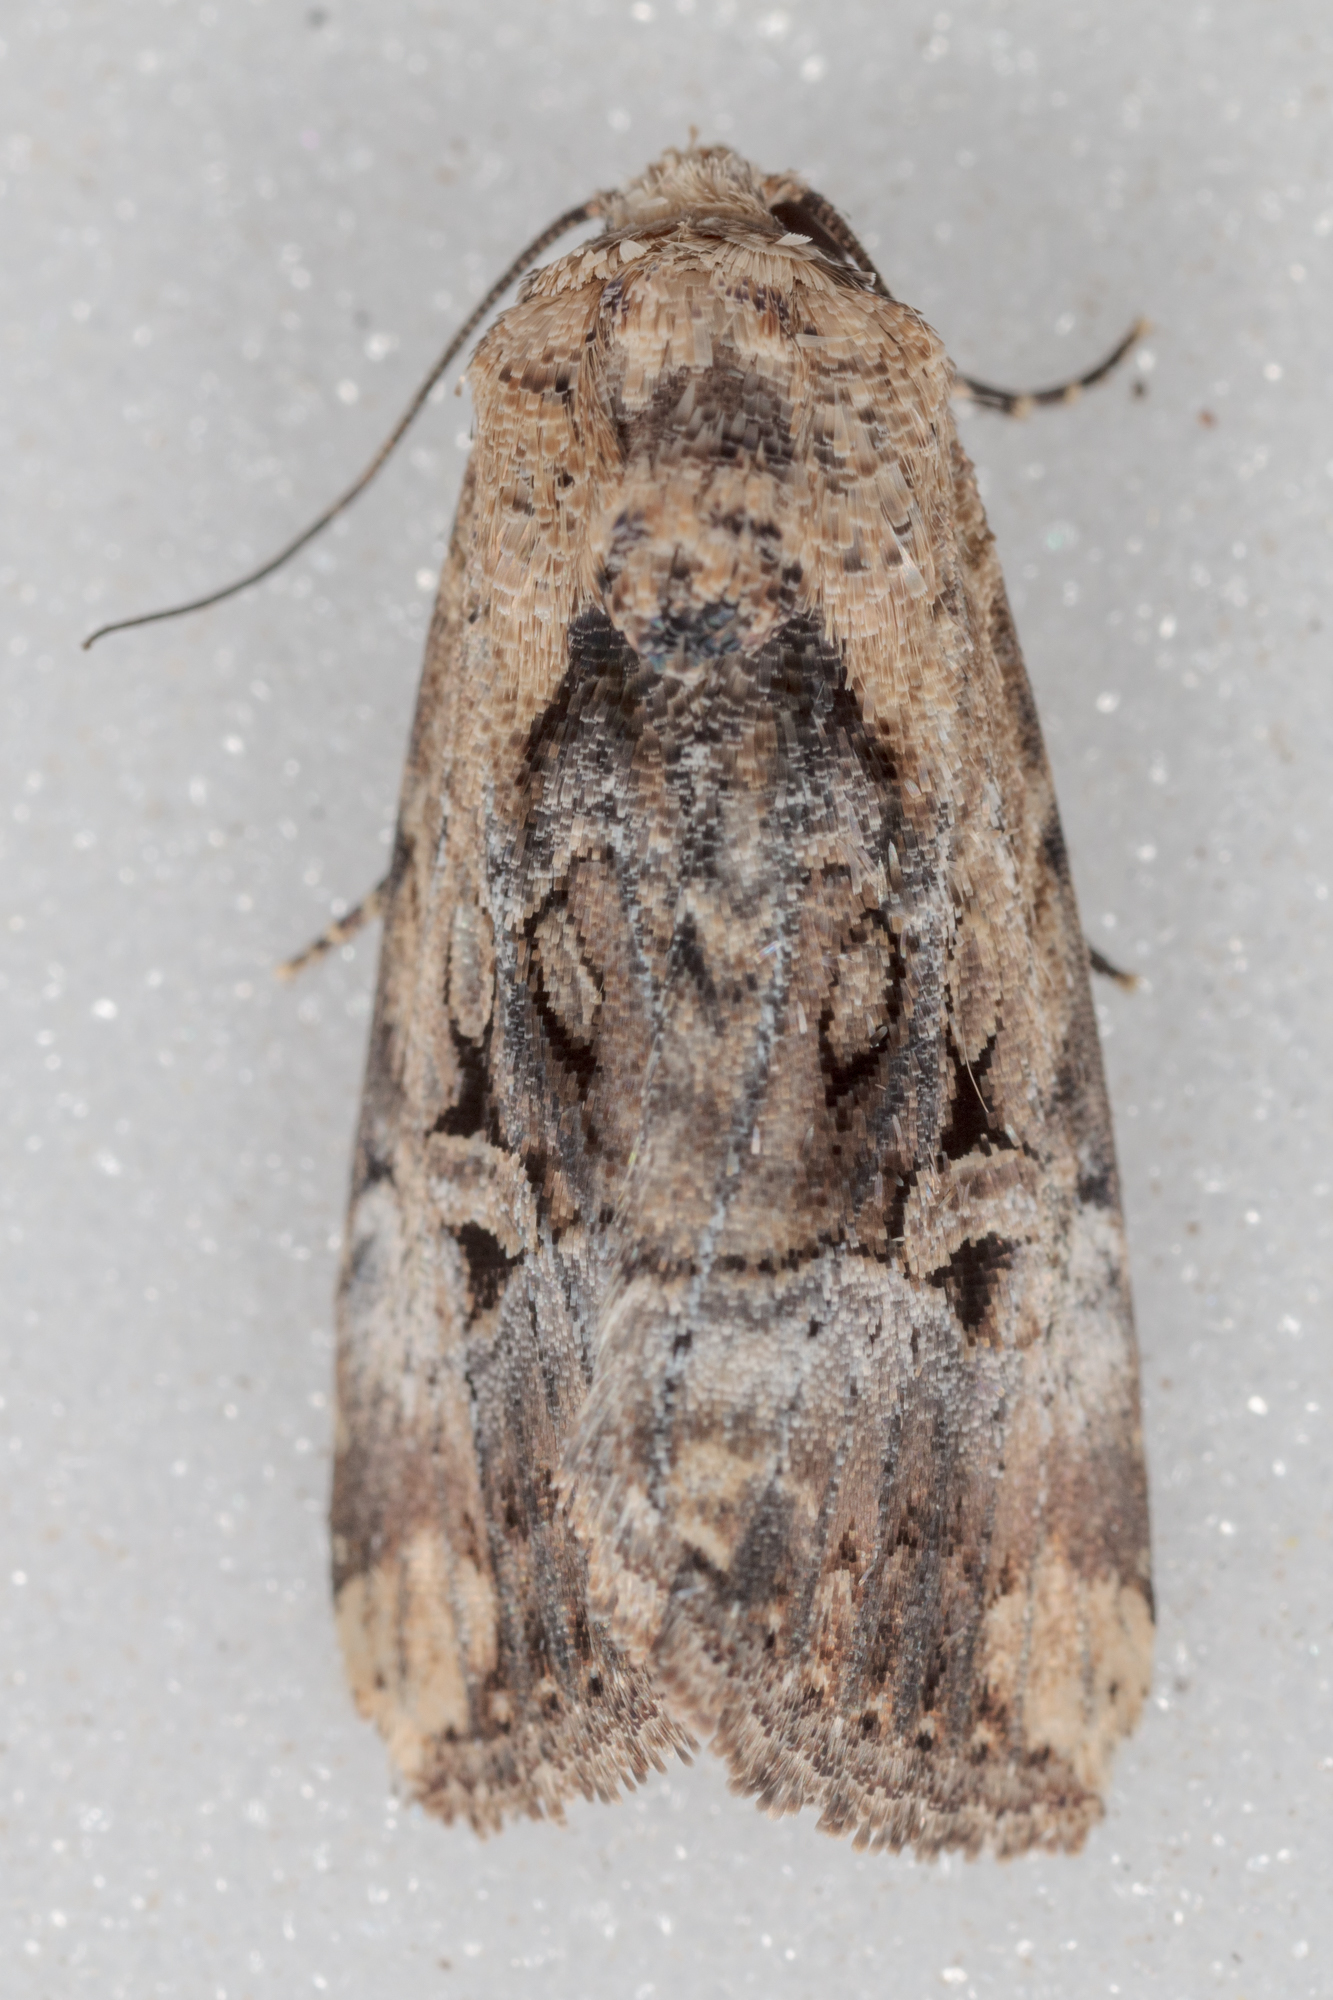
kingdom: Animalia
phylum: Arthropoda
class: Insecta
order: Lepidoptera
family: Noctuidae
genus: Elaphria
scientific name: Elaphria chalcedonia
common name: Chalcedony midget
